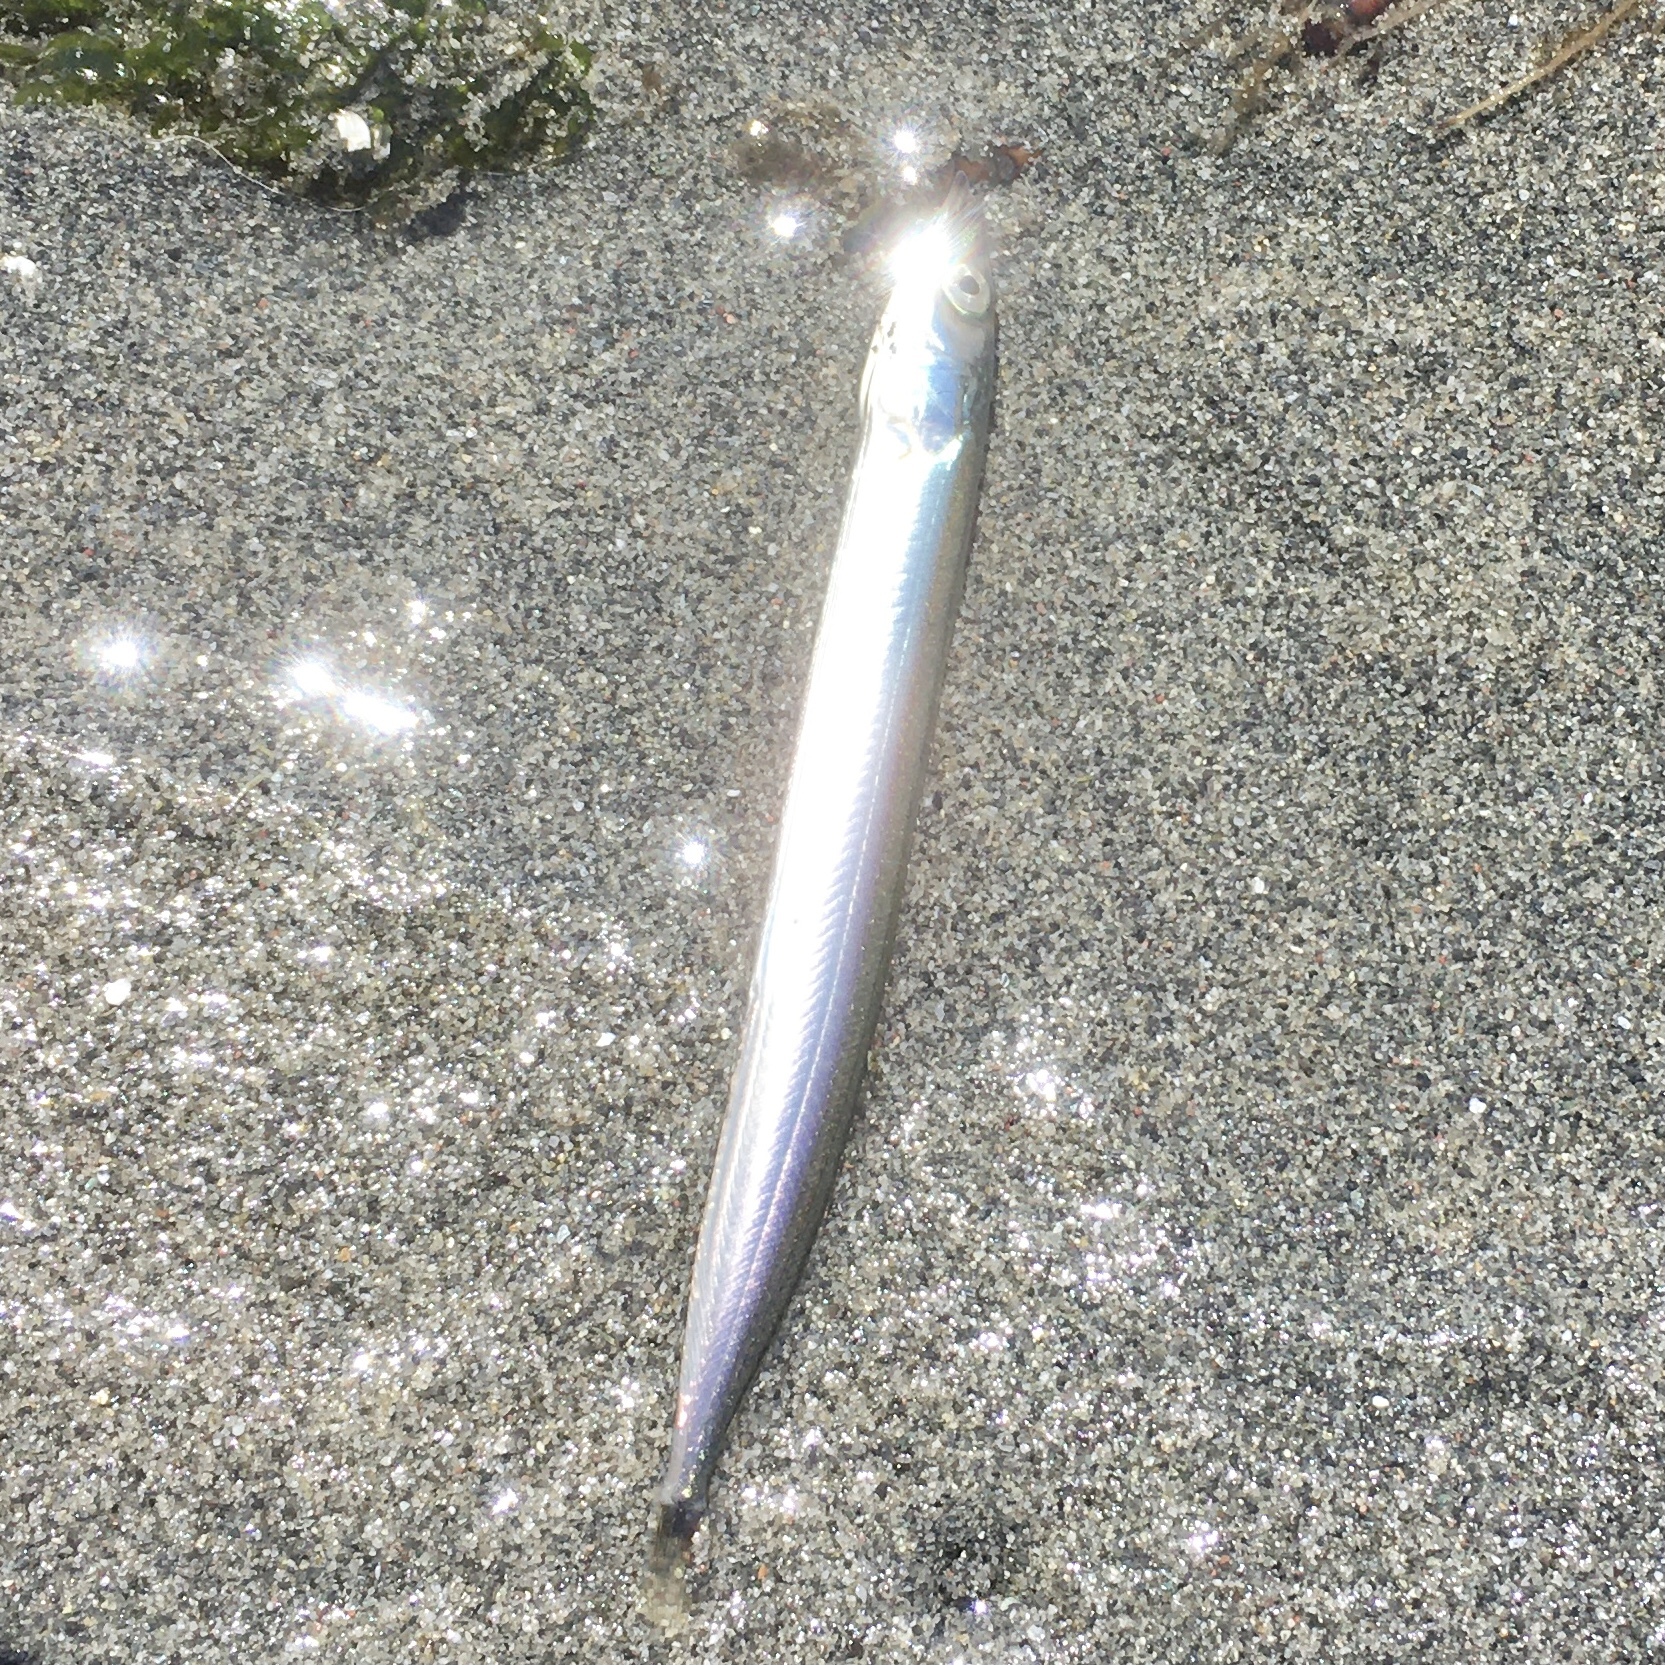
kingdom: Animalia
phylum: Chordata
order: Perciformes
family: Ammodytidae
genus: Ammodytes
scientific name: Ammodytes personatus
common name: Japanese sand lance
